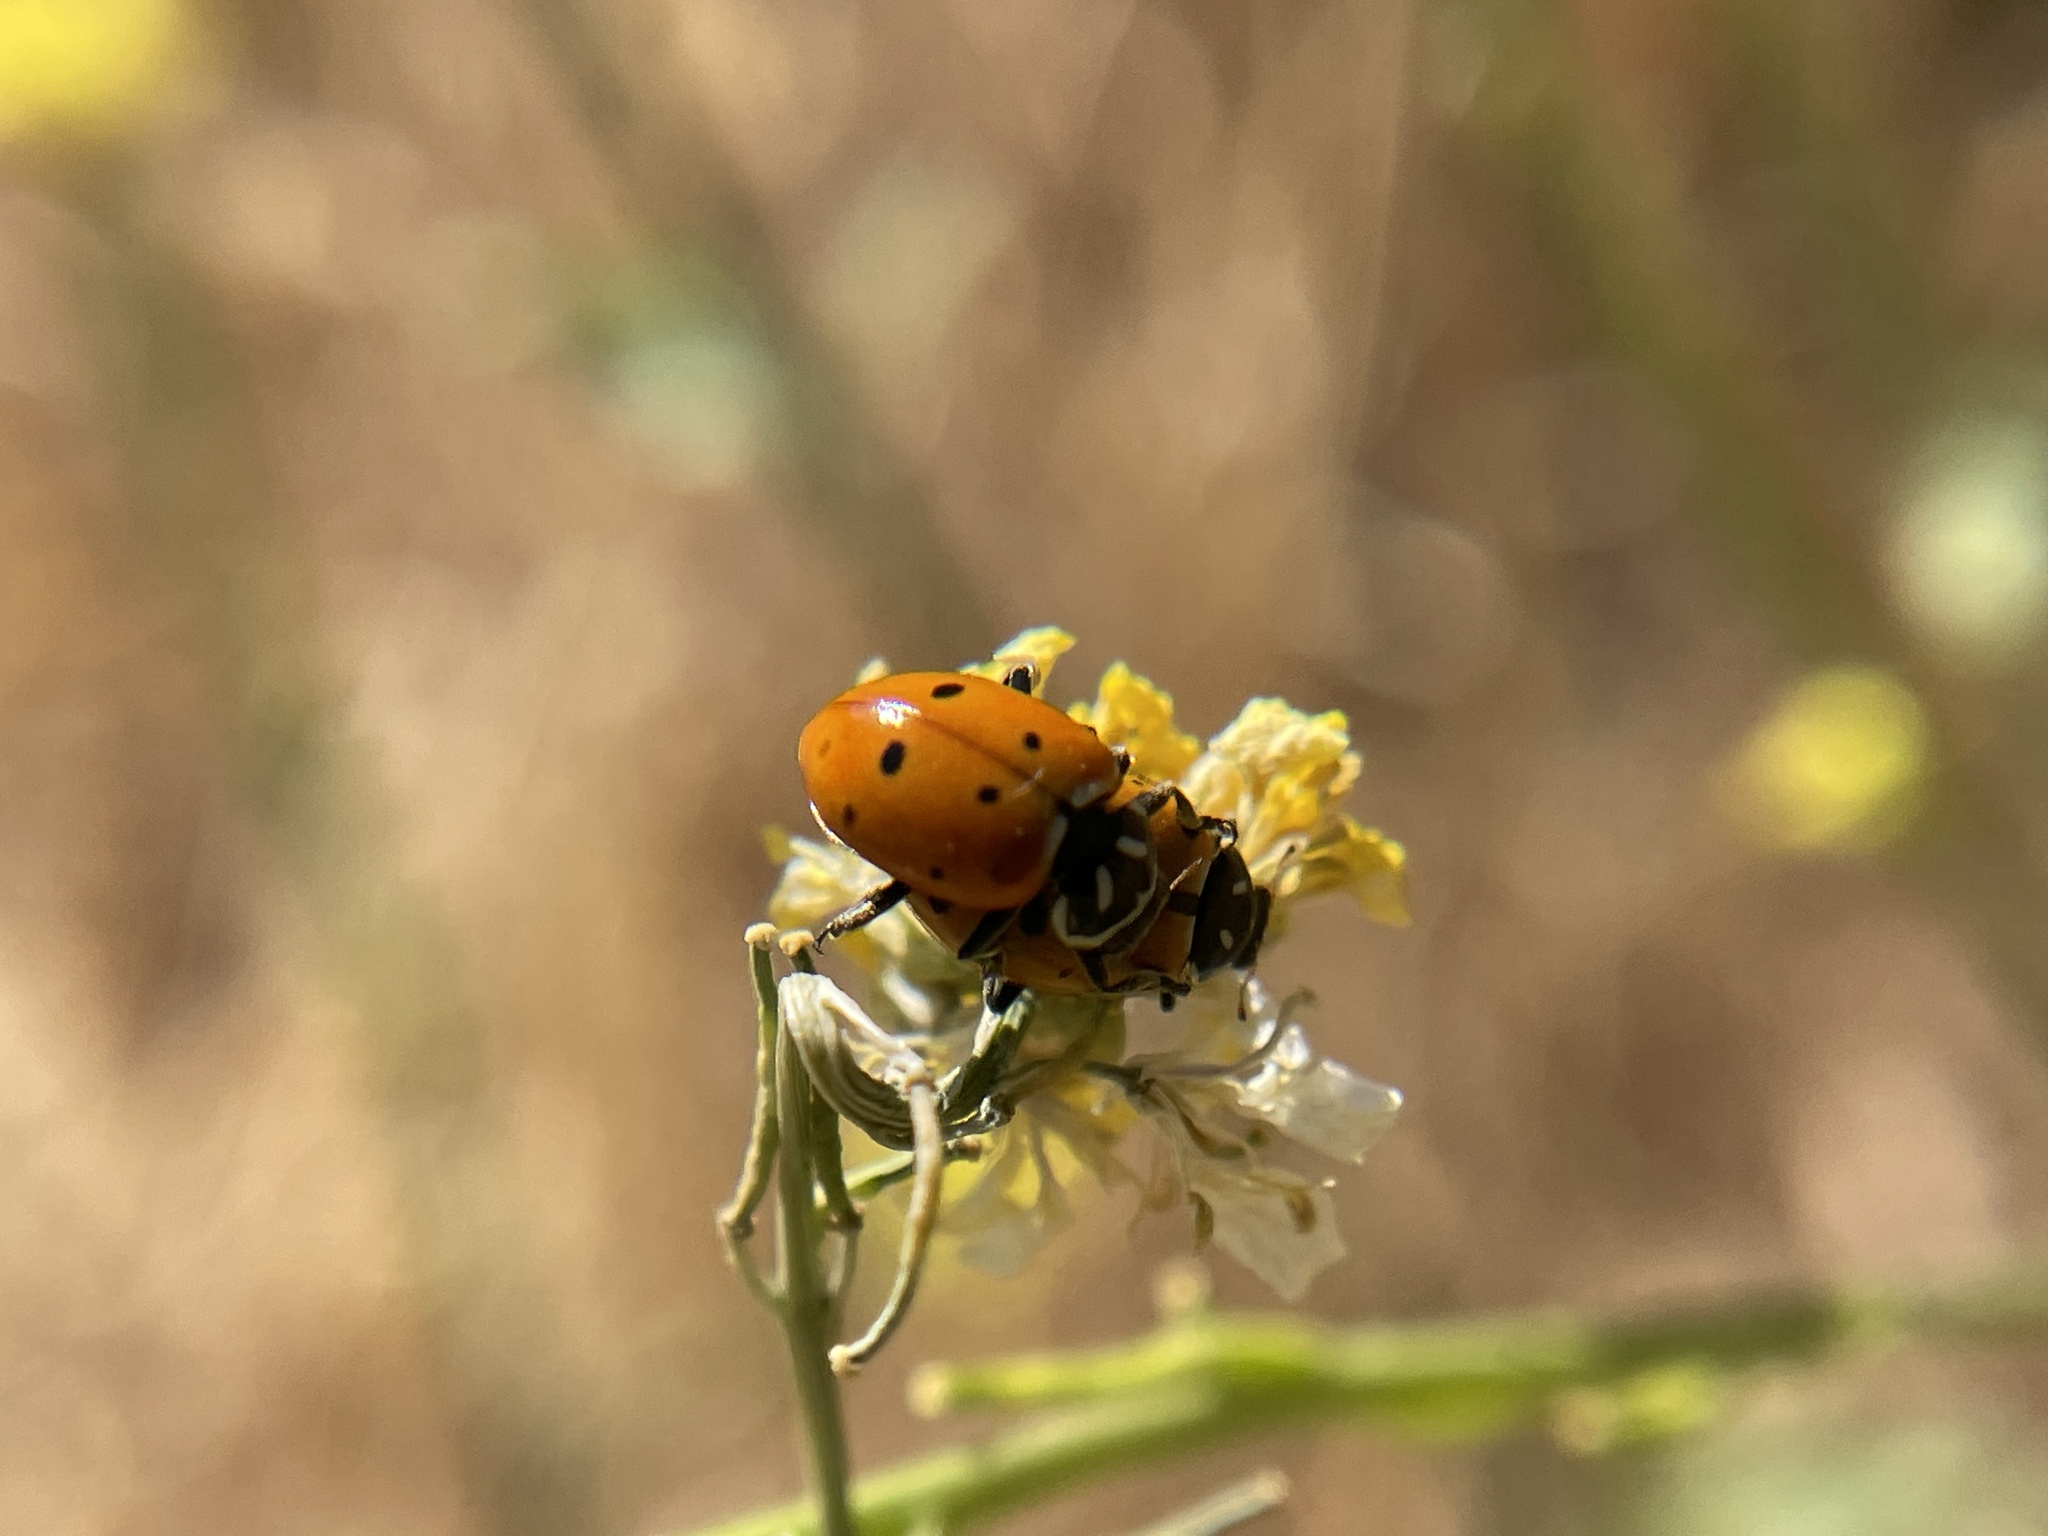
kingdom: Animalia
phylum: Arthropoda
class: Insecta
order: Coleoptera
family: Coccinellidae
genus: Hippodamia
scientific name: Hippodamia convergens
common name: Convergent lady beetle
